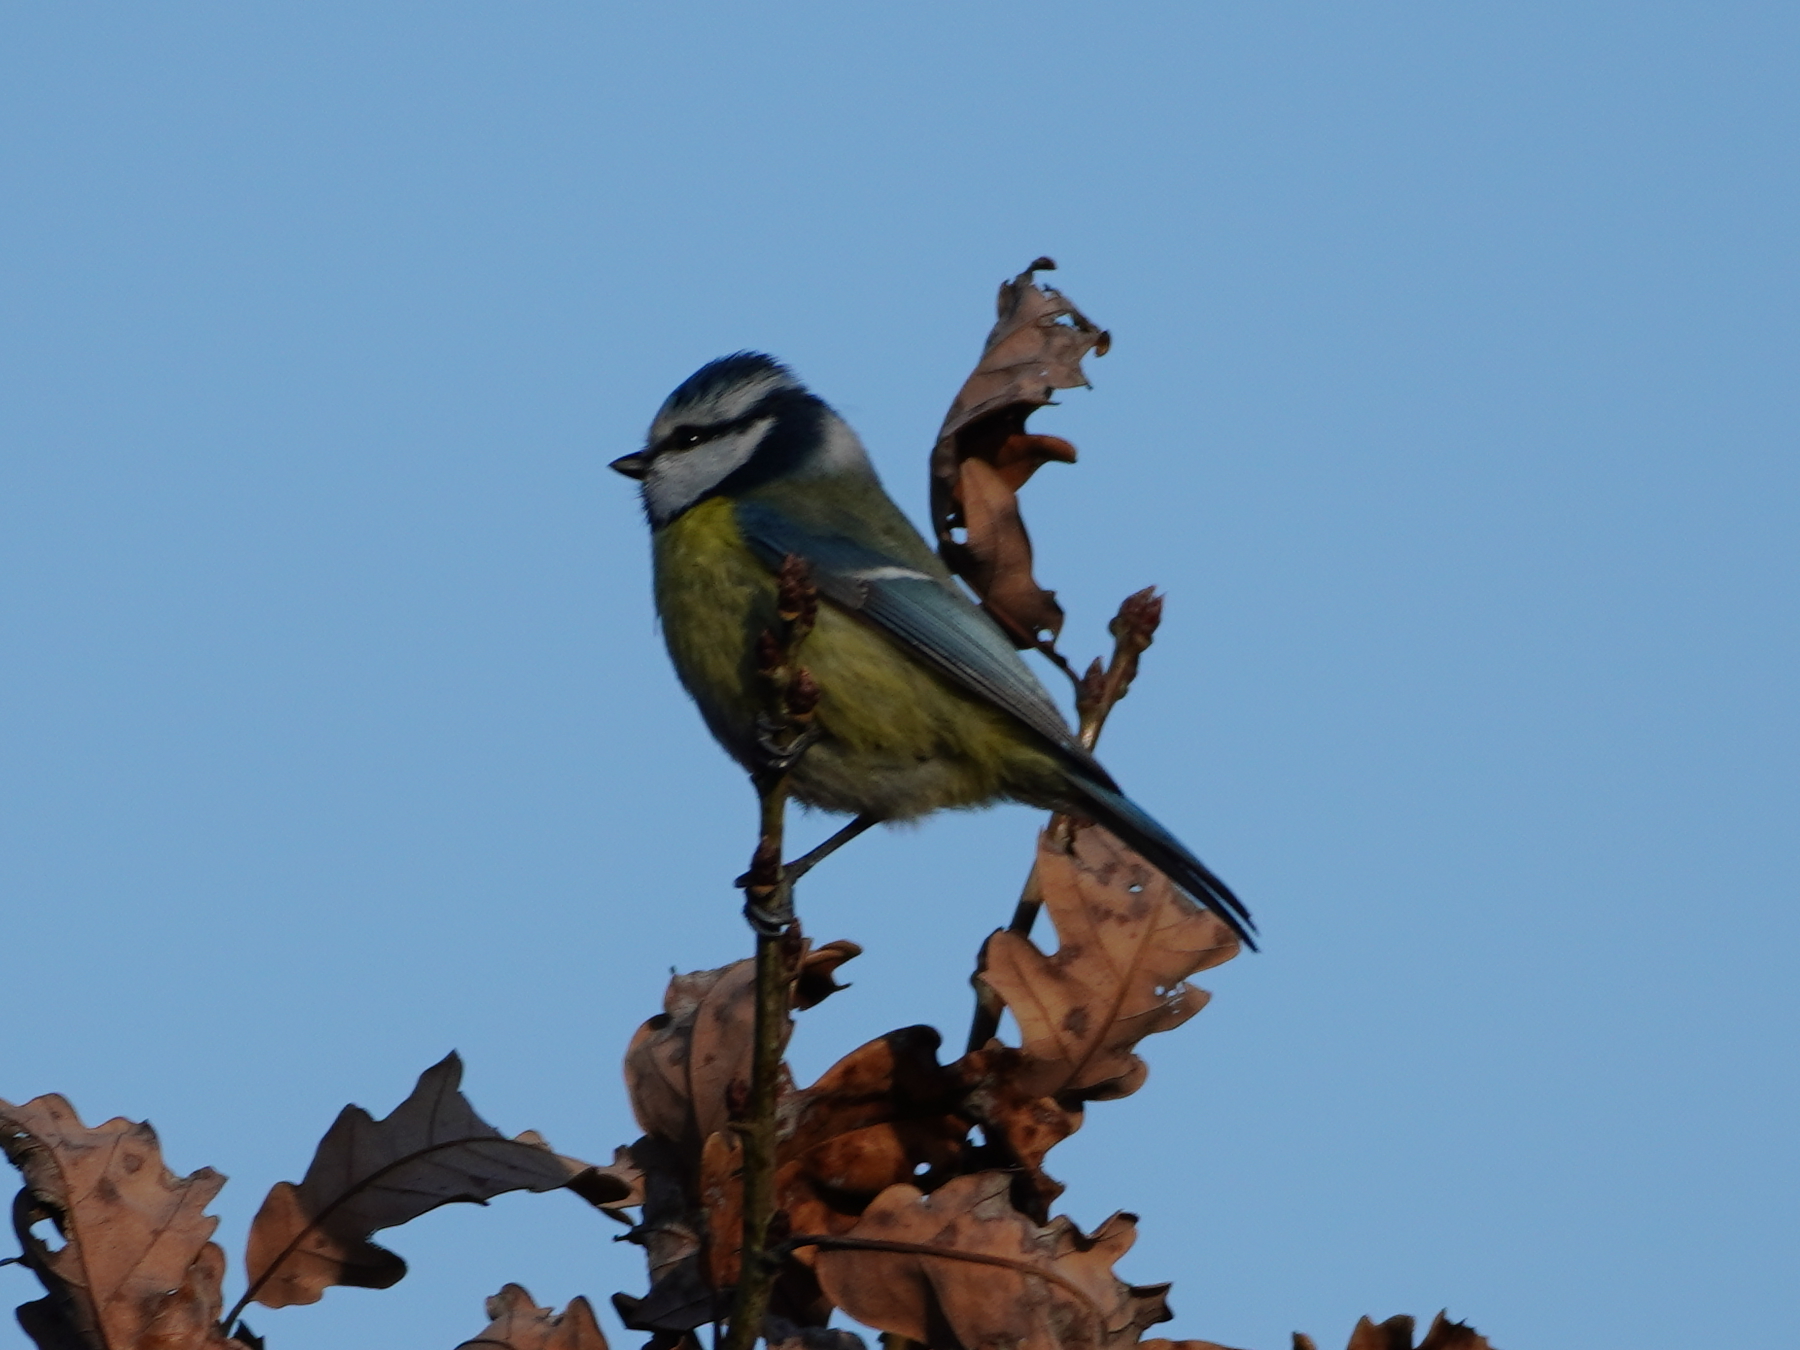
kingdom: Animalia
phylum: Chordata
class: Aves
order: Passeriformes
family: Paridae
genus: Cyanistes
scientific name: Cyanistes caeruleus
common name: Eurasian blue tit
